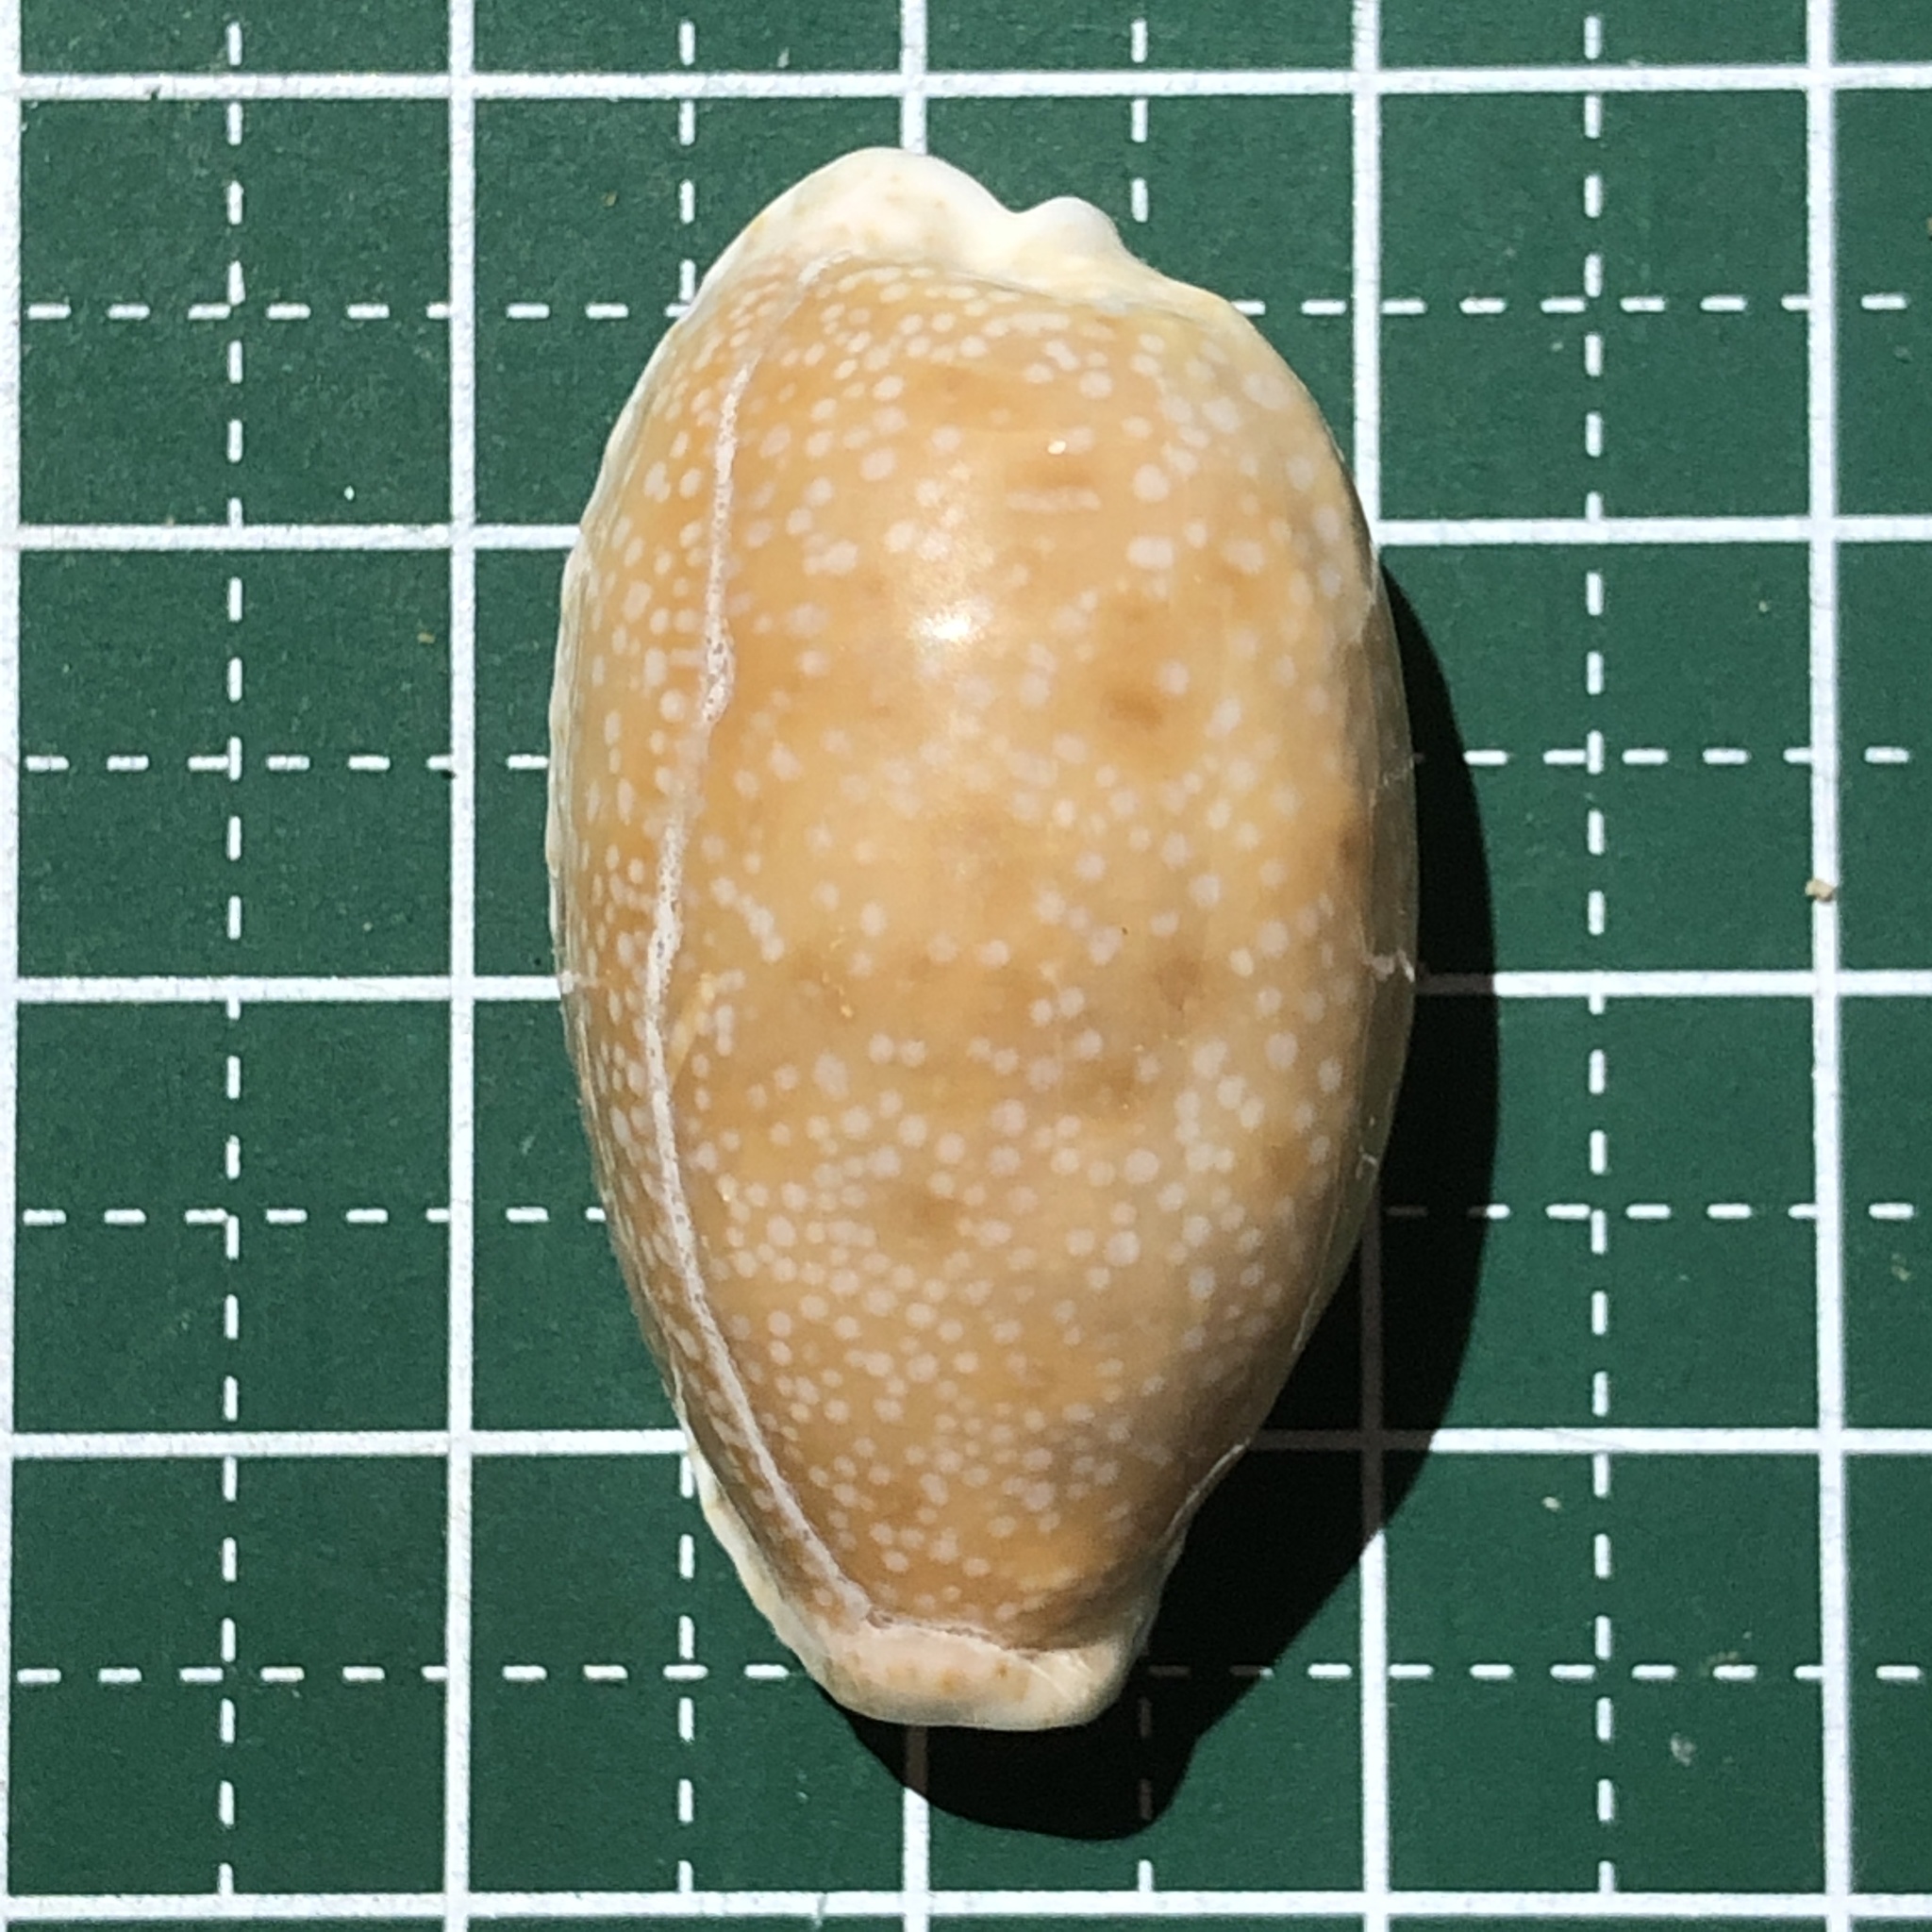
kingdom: Animalia
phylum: Mollusca
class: Gastropoda
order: Littorinimorpha
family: Cypraeidae
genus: Naria
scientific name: Naria erosa
